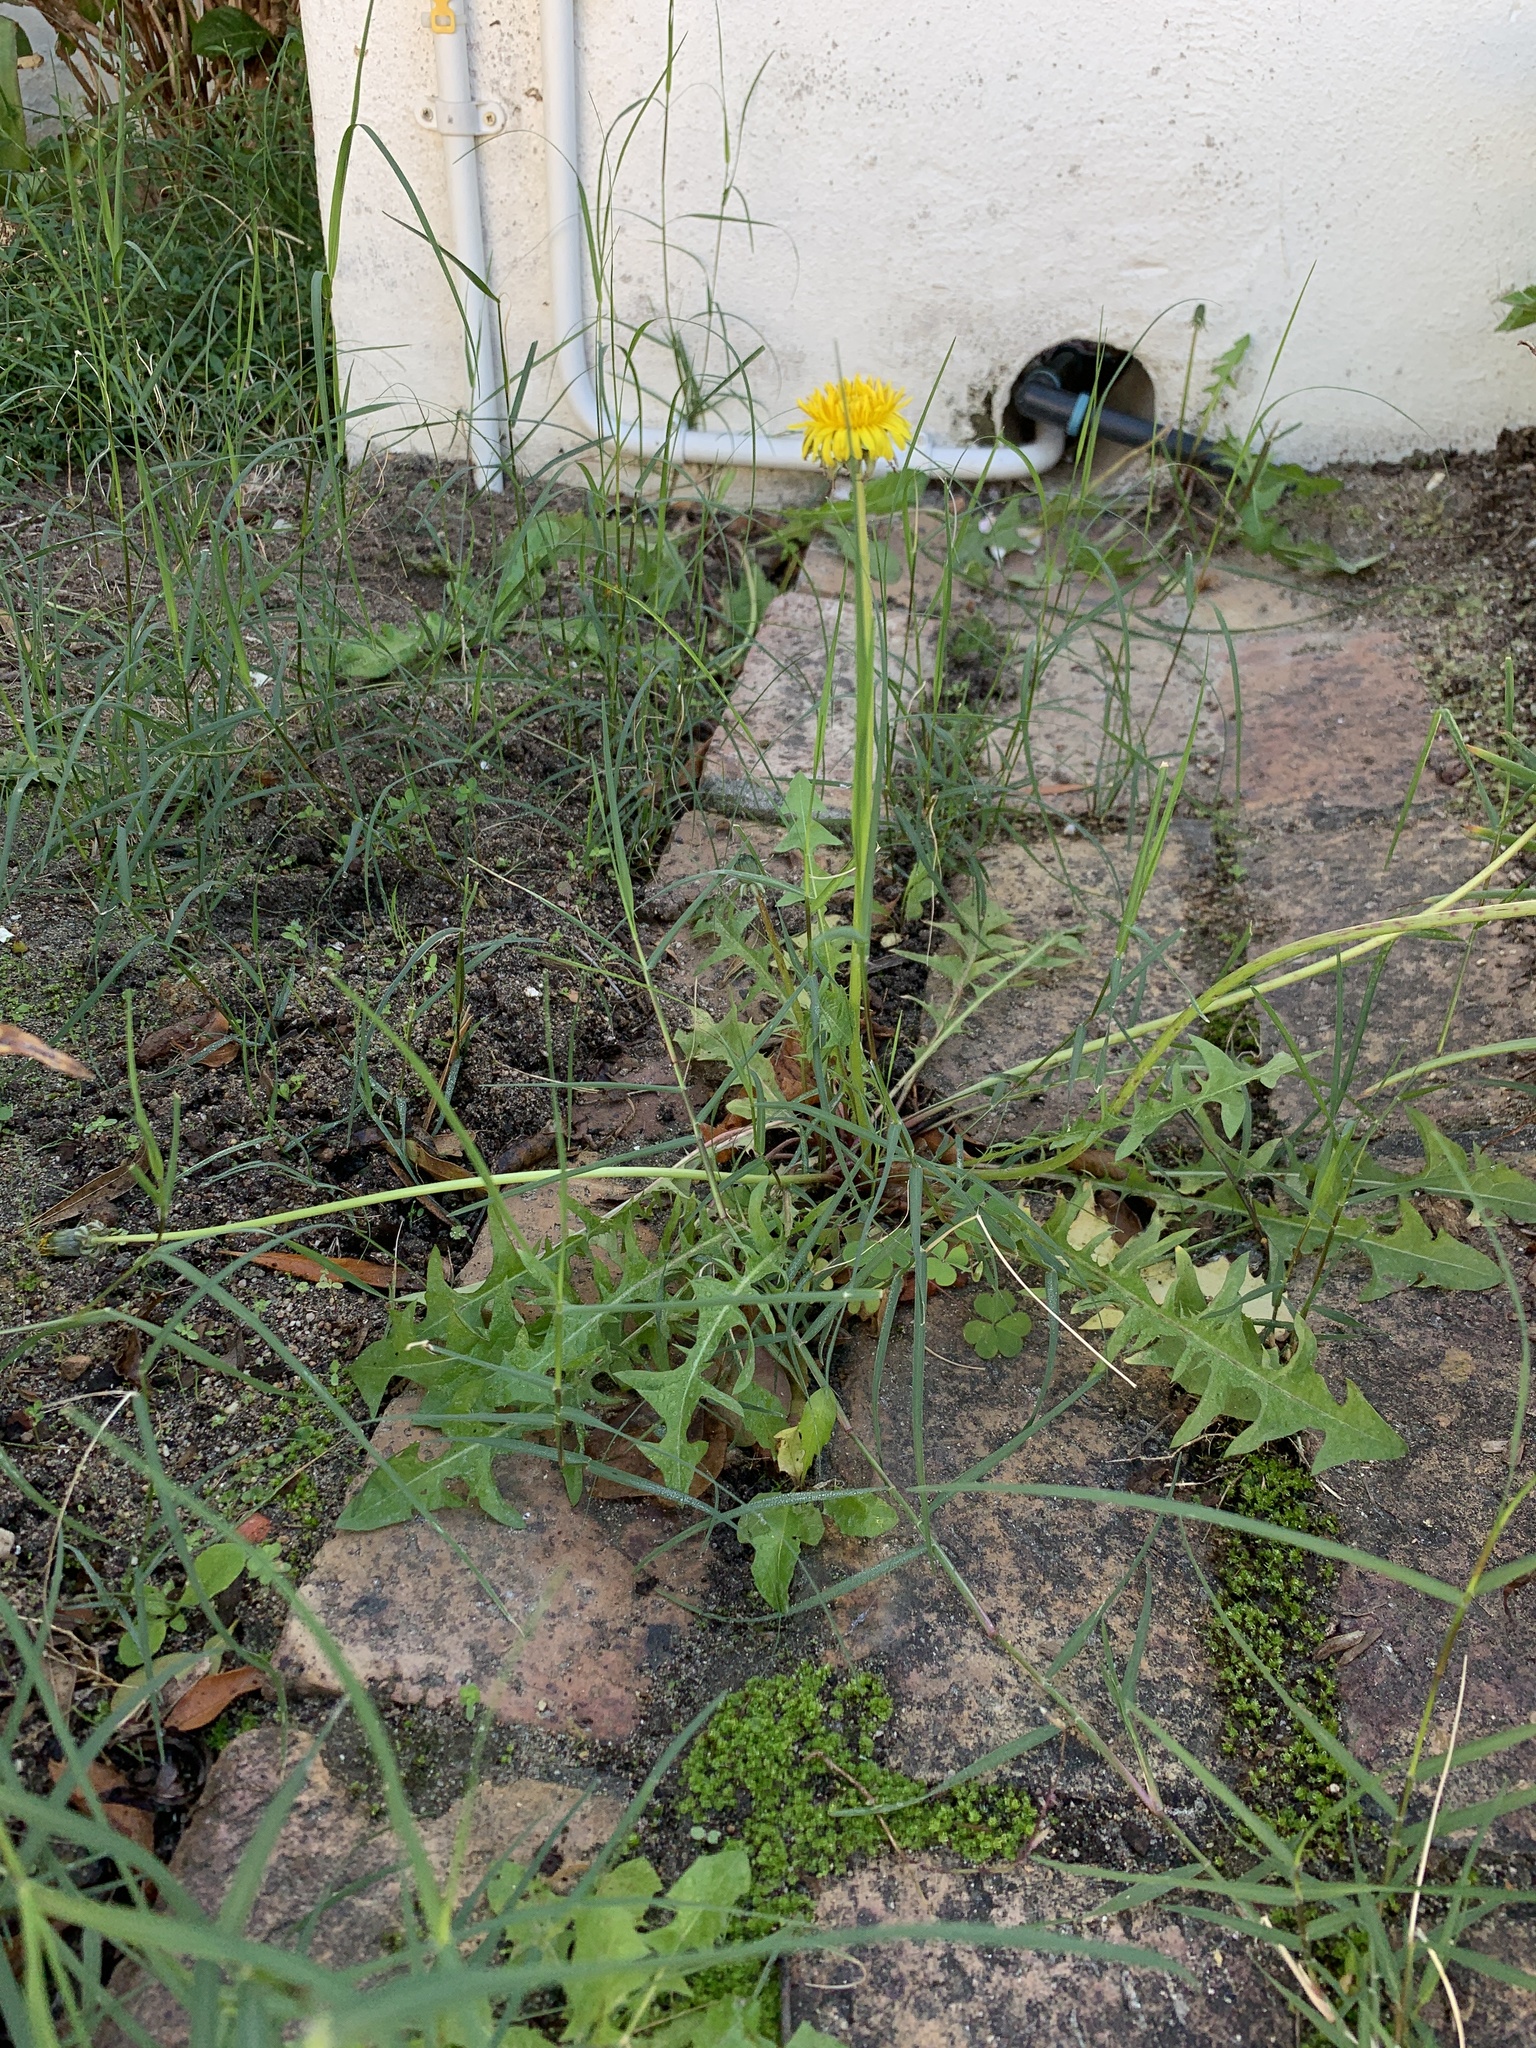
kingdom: Plantae
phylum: Tracheophyta
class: Magnoliopsida
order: Asterales
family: Asteraceae
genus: Taraxacum
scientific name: Taraxacum officinale
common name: Common dandelion
